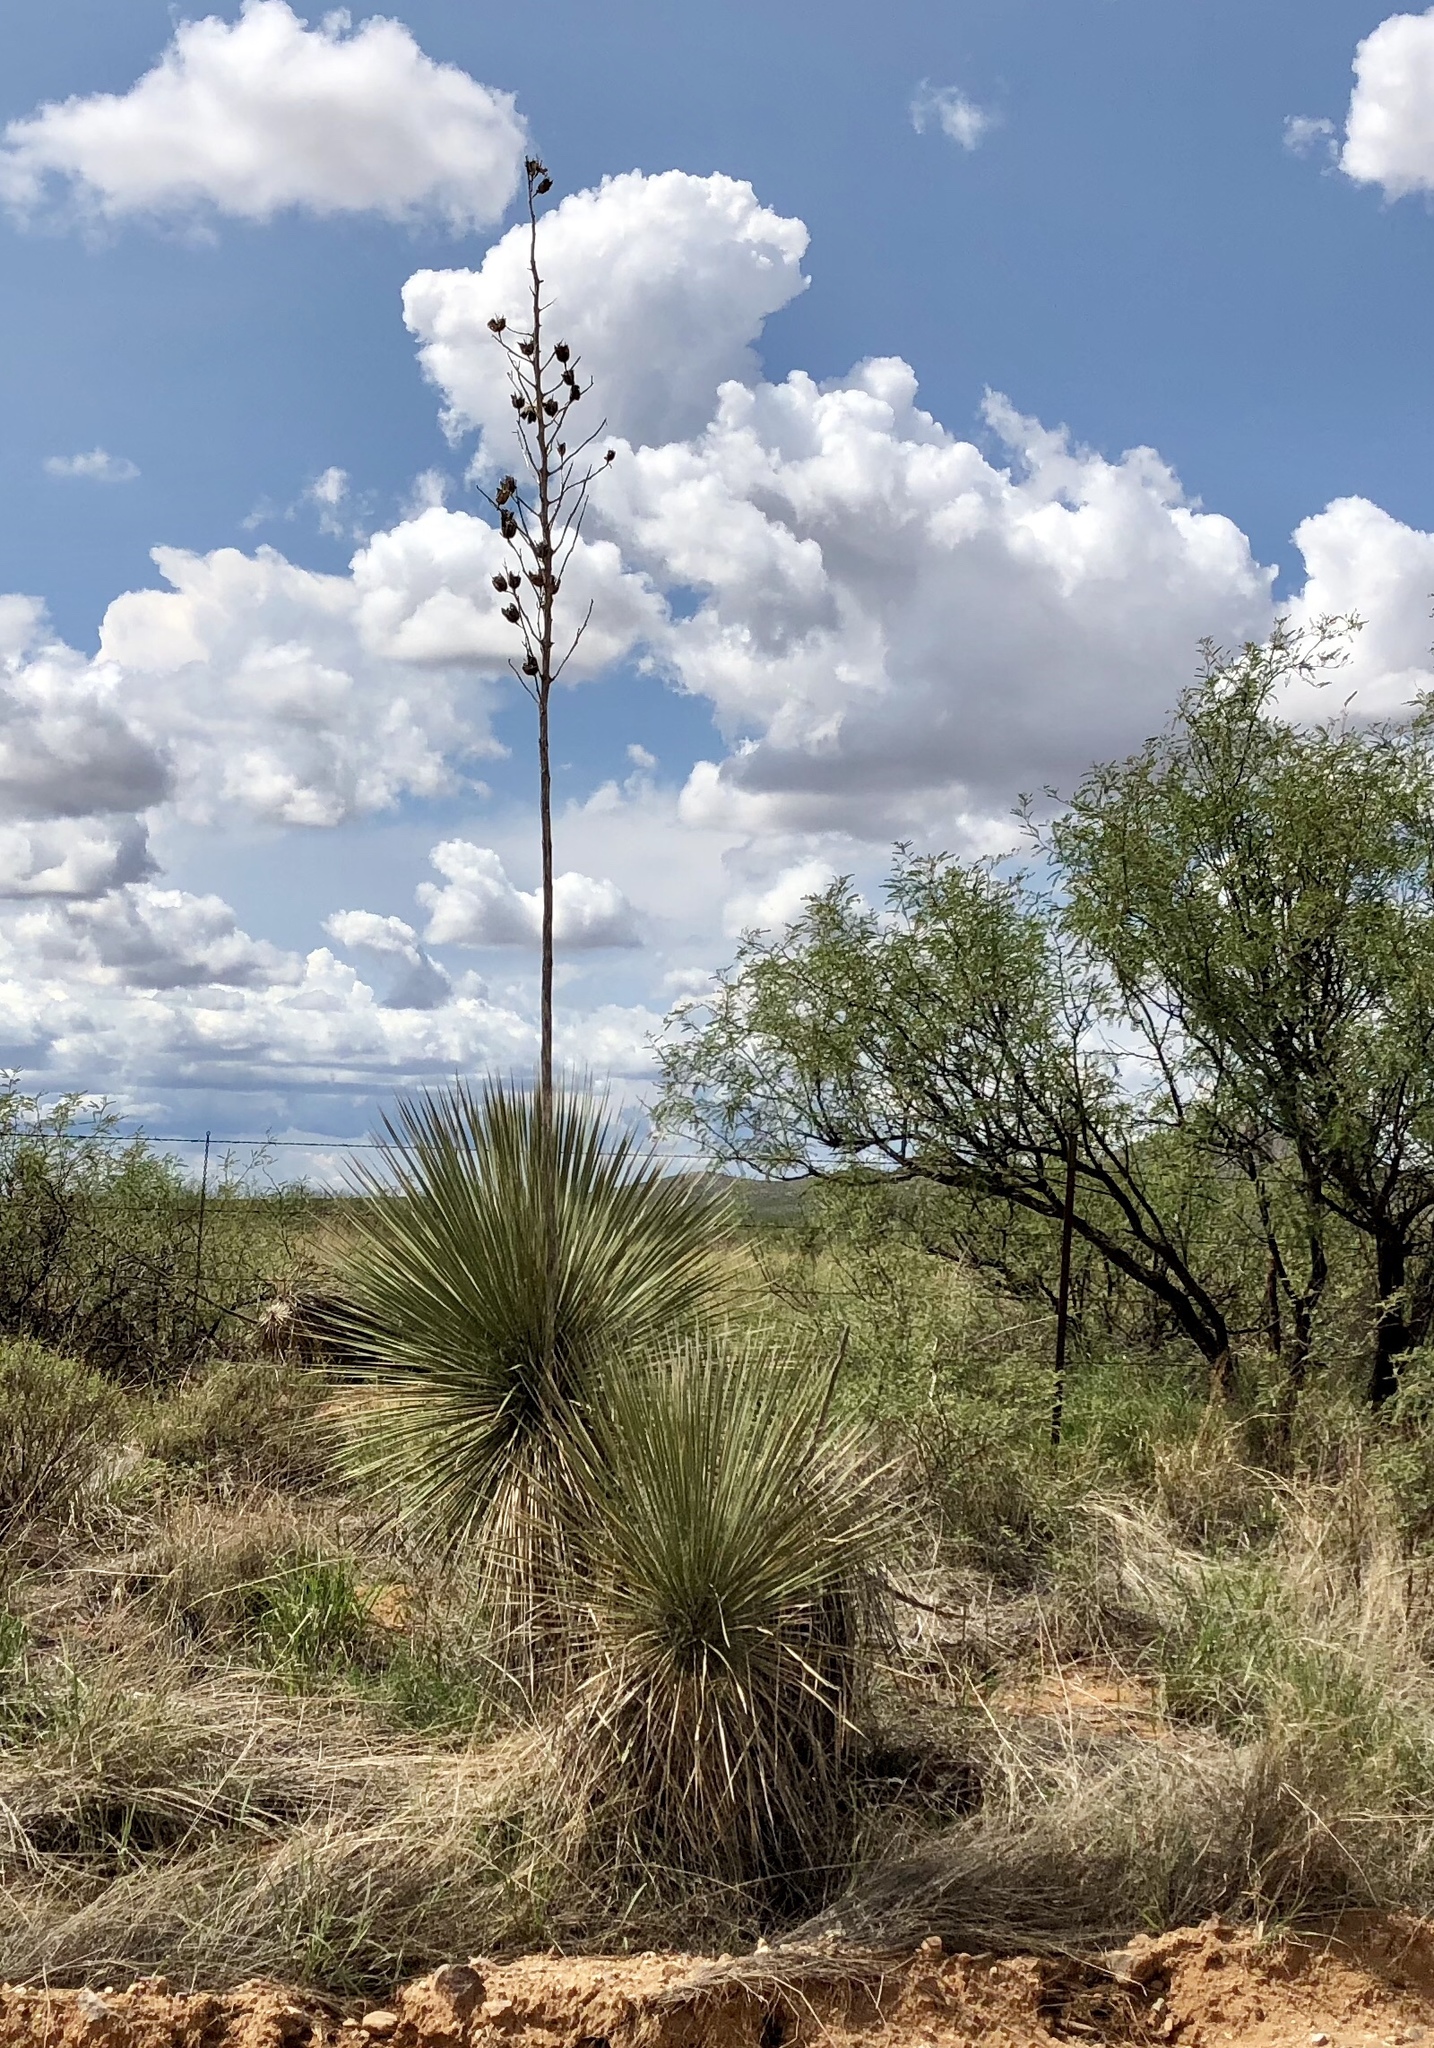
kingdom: Plantae
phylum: Tracheophyta
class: Liliopsida
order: Asparagales
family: Asparagaceae
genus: Yucca
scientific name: Yucca elata
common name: Palmella
